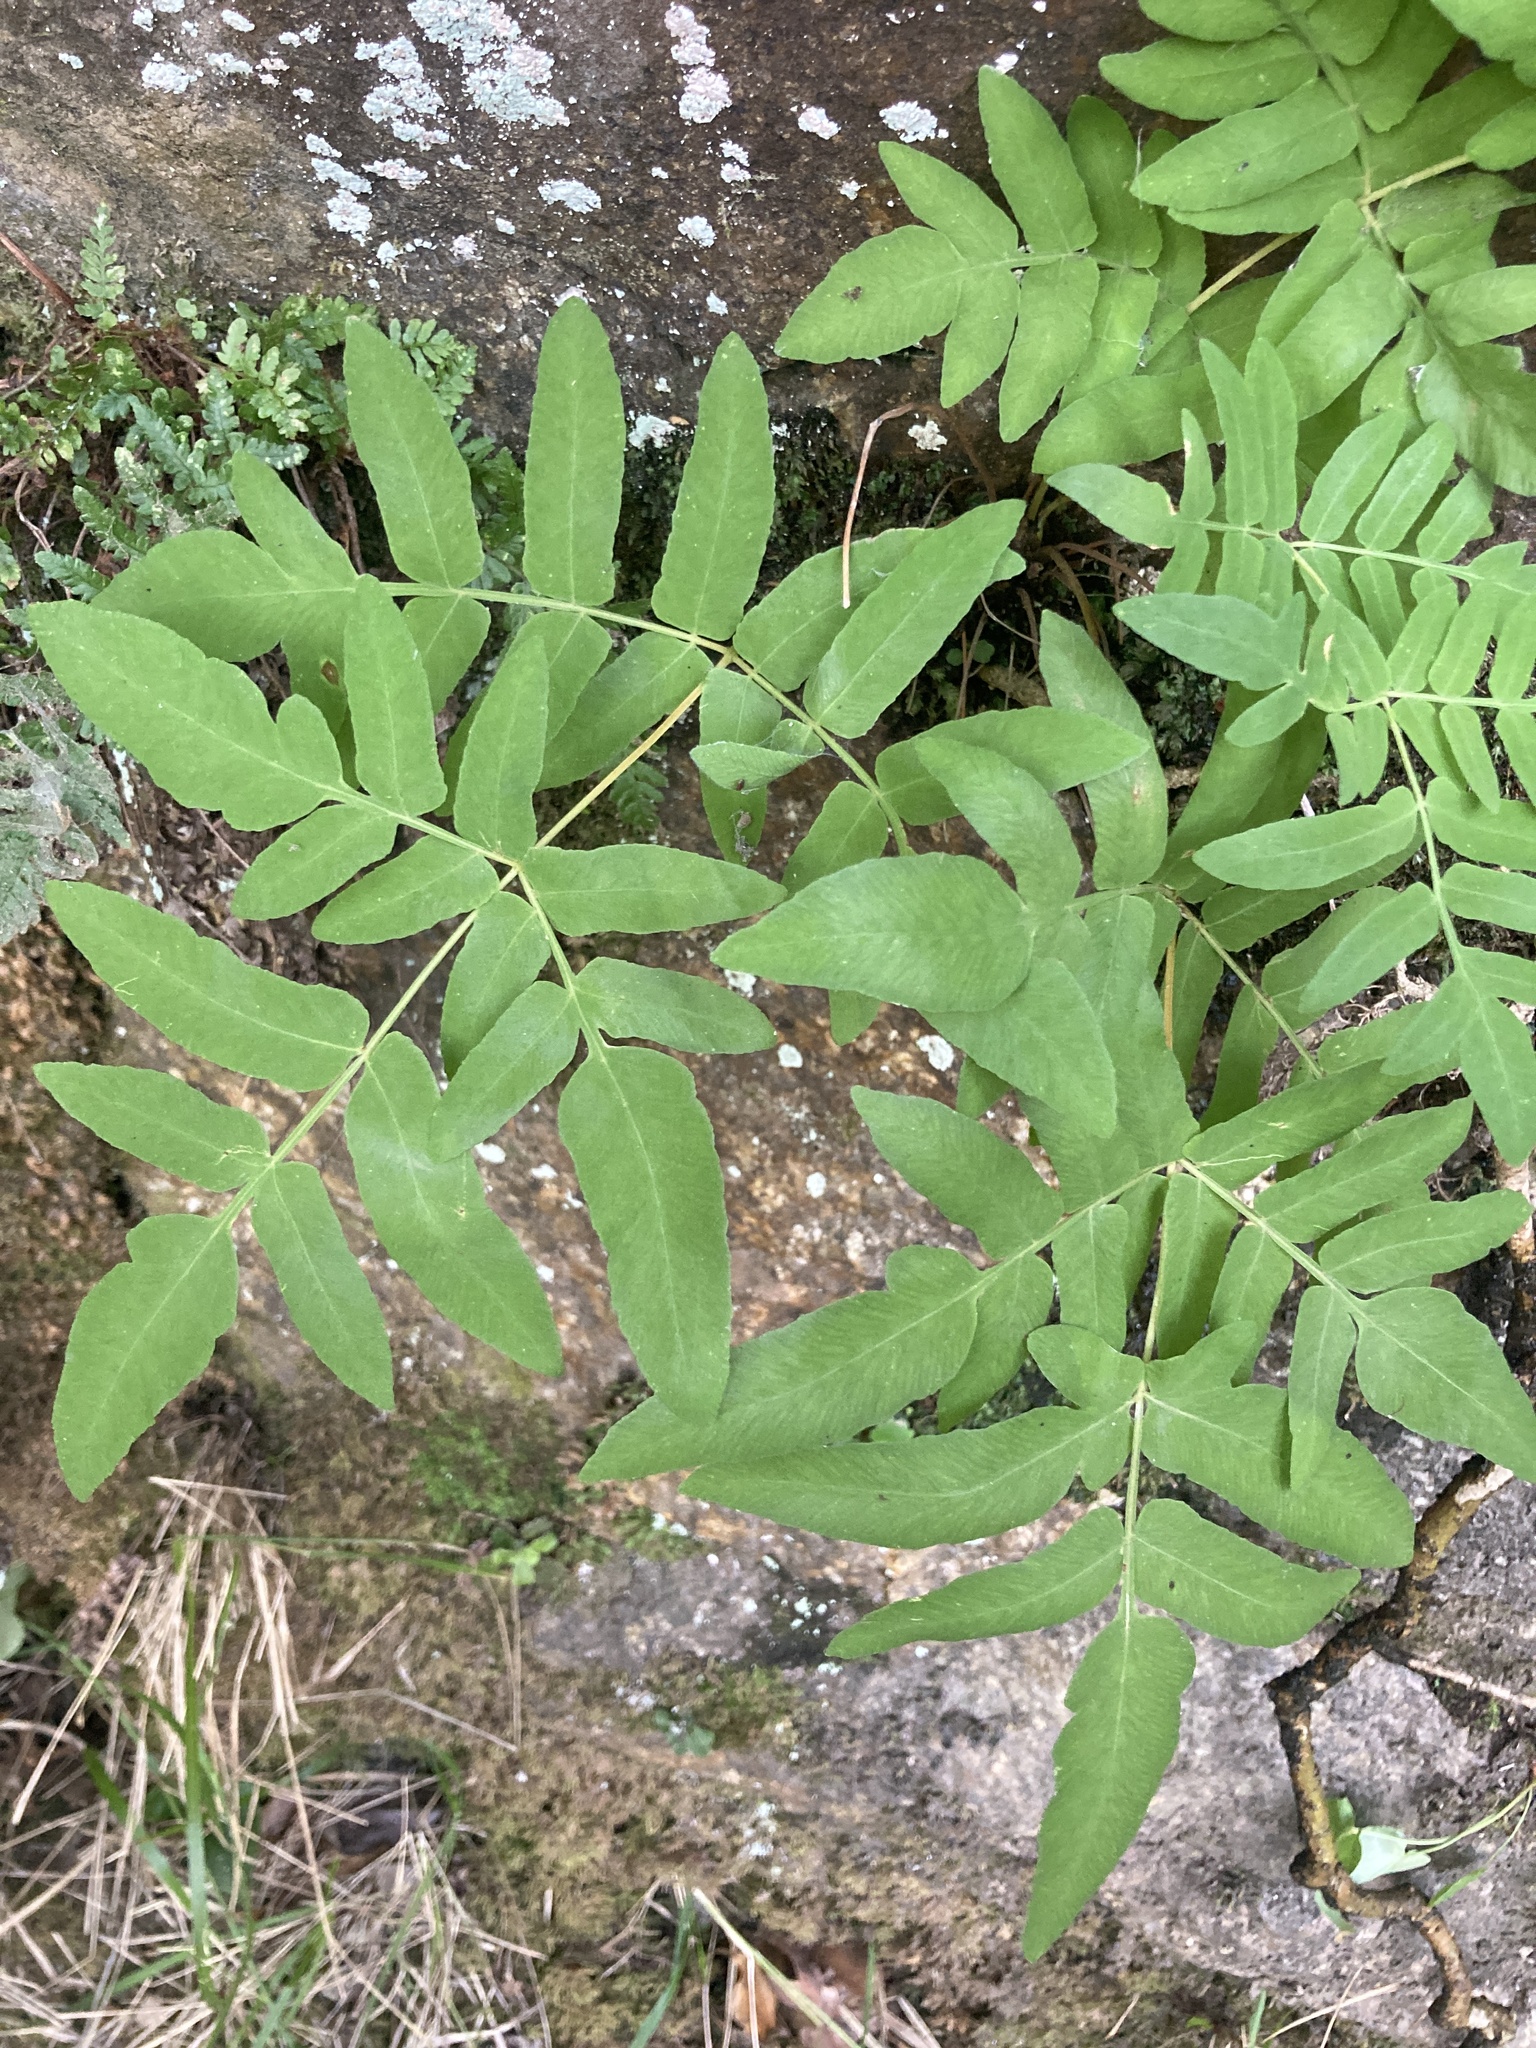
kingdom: Plantae
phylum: Tracheophyta
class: Polypodiopsida
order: Osmundales
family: Osmundaceae
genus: Osmunda
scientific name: Osmunda regalis
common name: Royal fern
